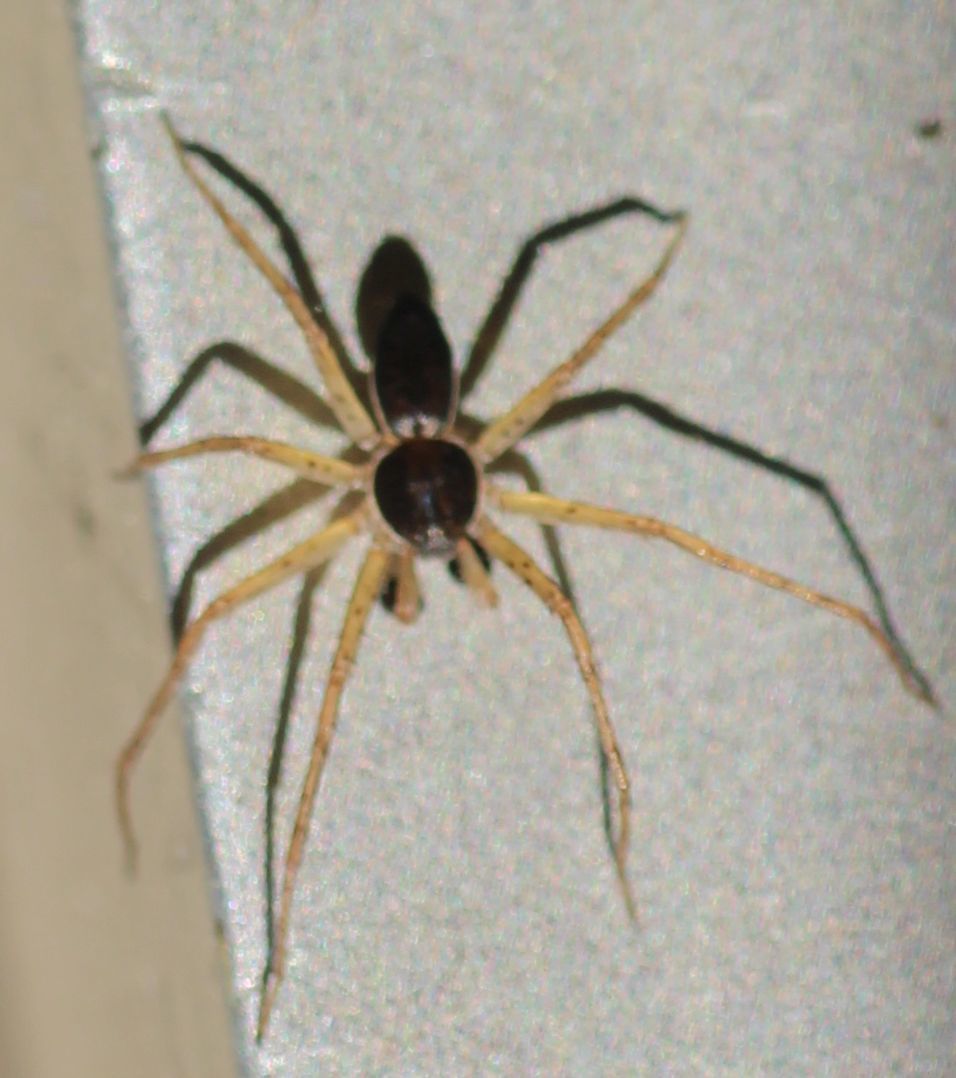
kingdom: Animalia
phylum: Arthropoda
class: Arachnida
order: Araneae
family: Philodromidae
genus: Philodromus
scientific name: Philodromus dispar
